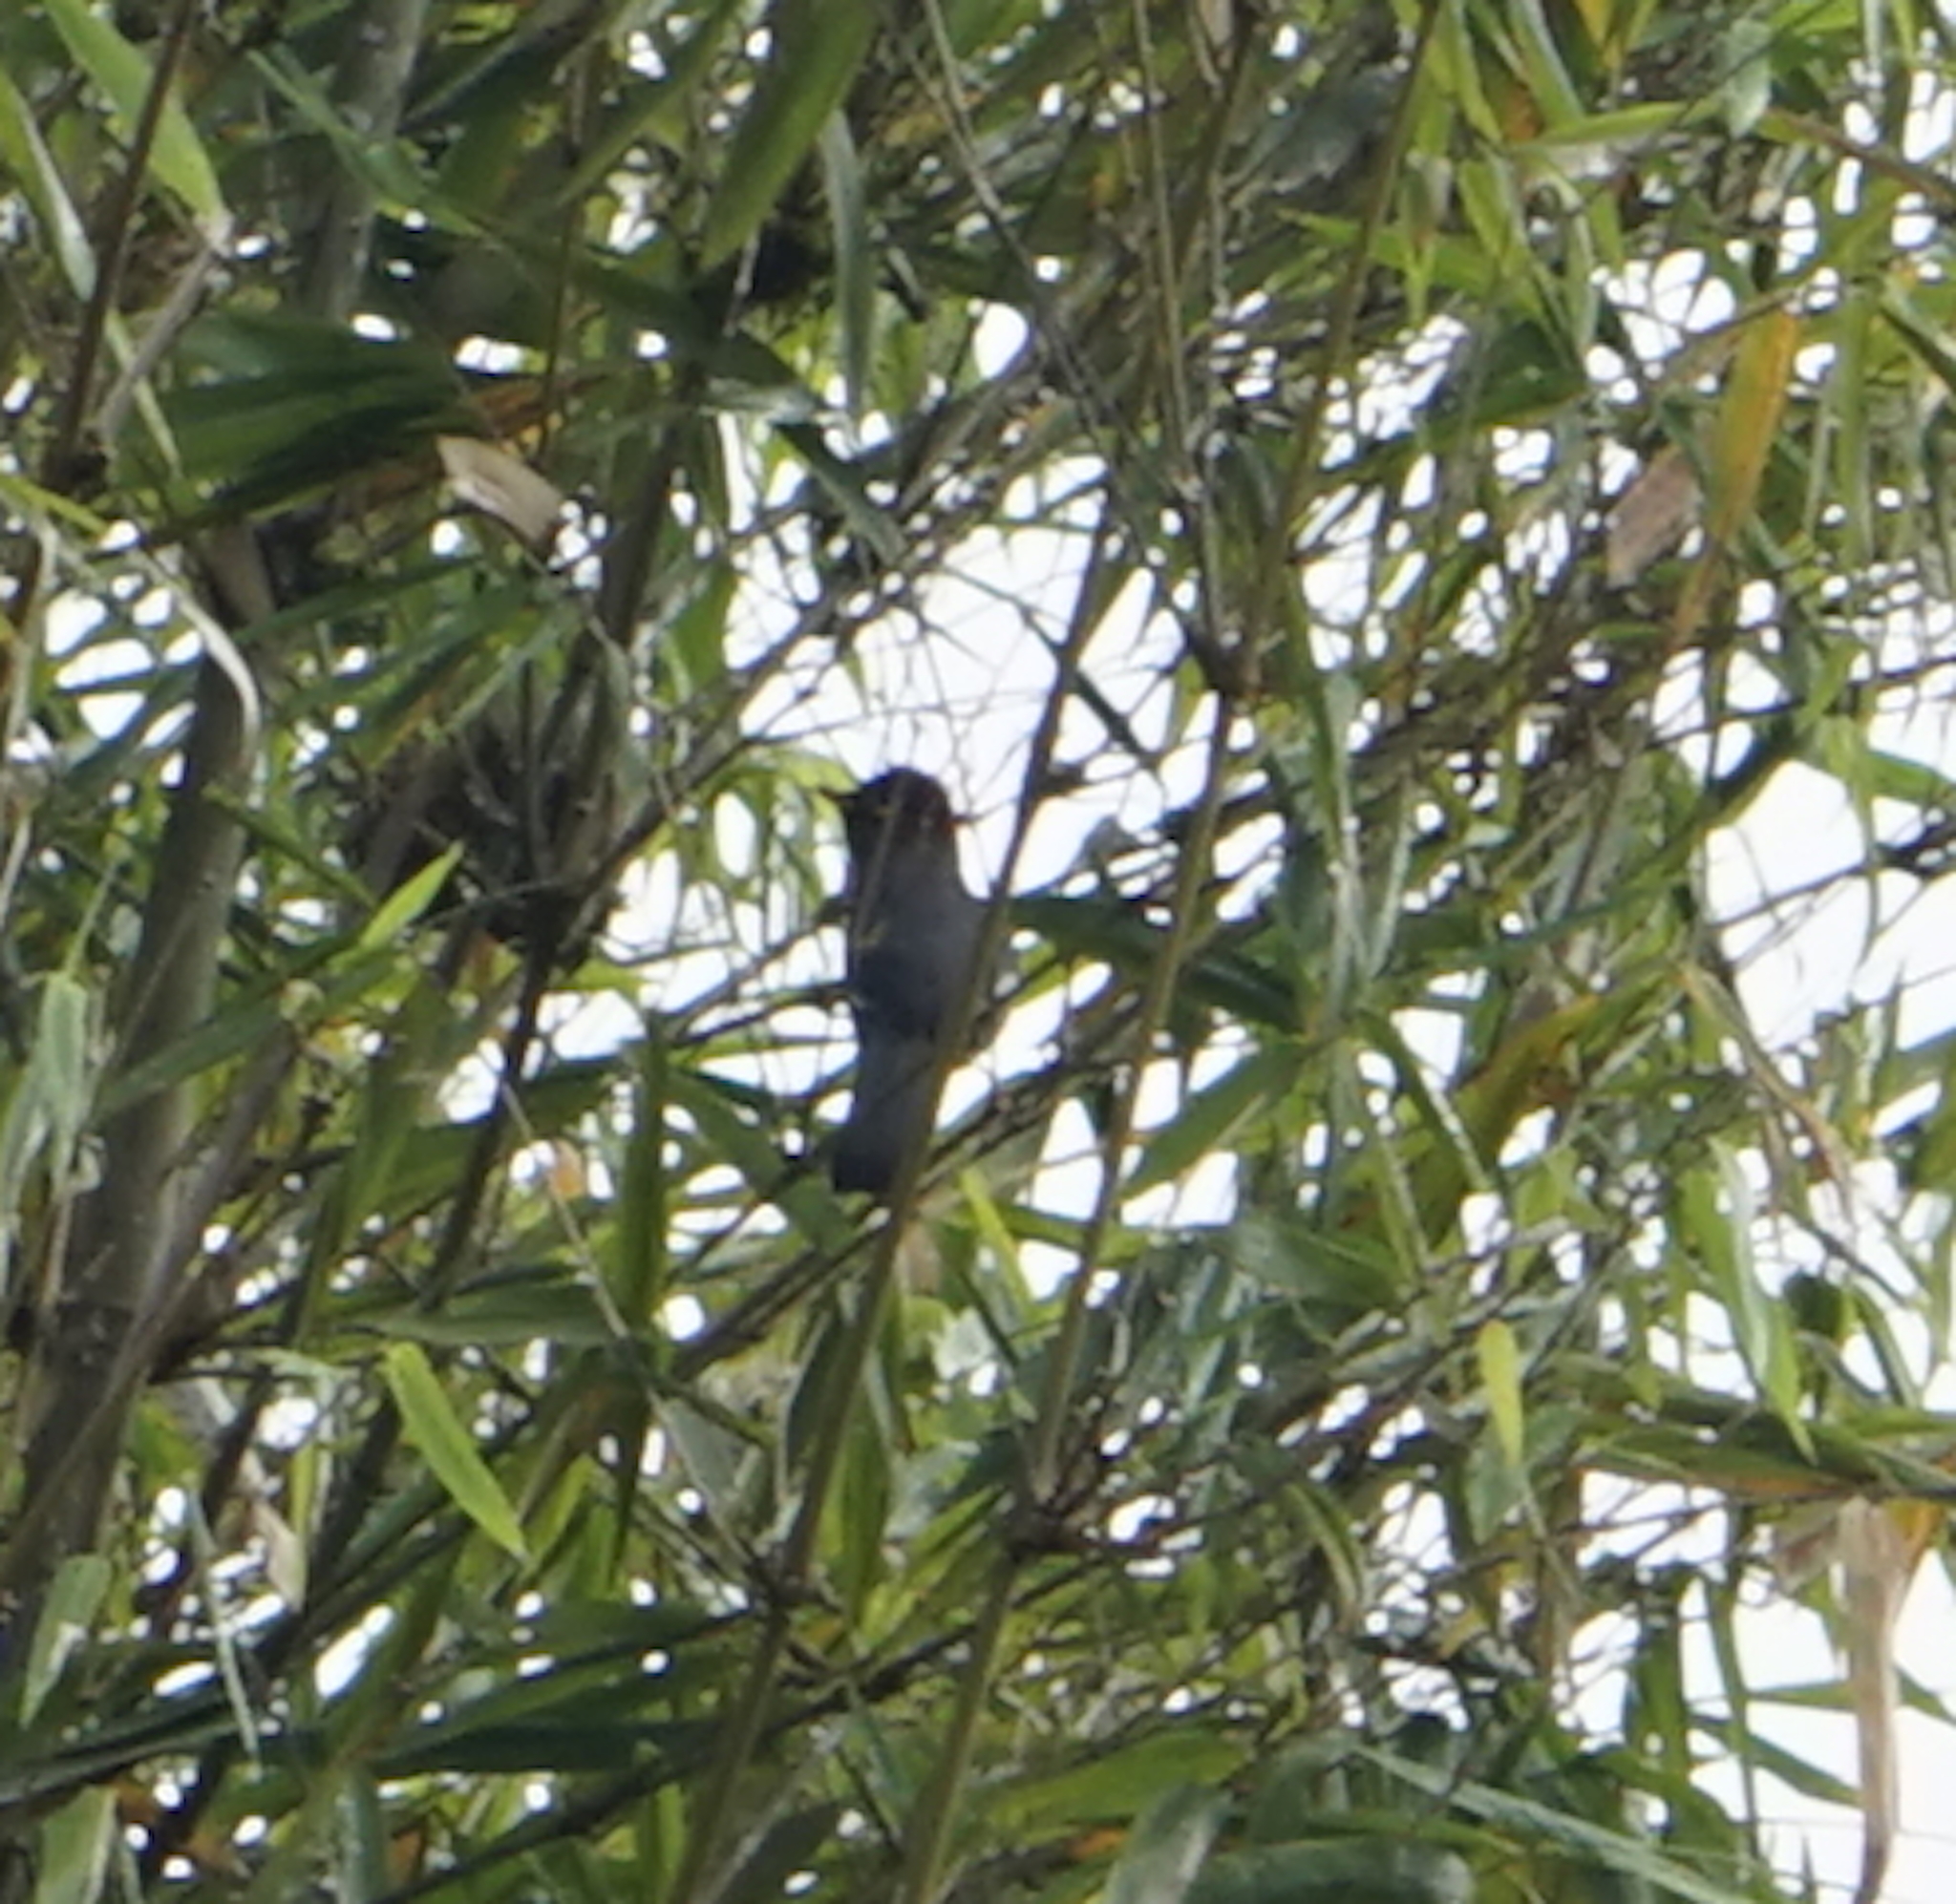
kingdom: Animalia
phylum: Chordata
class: Aves
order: Passeriformes
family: Leiothrichidae
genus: Garrulax
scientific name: Garrulax treacheri
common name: Chestnut-hooded laughingthrush
